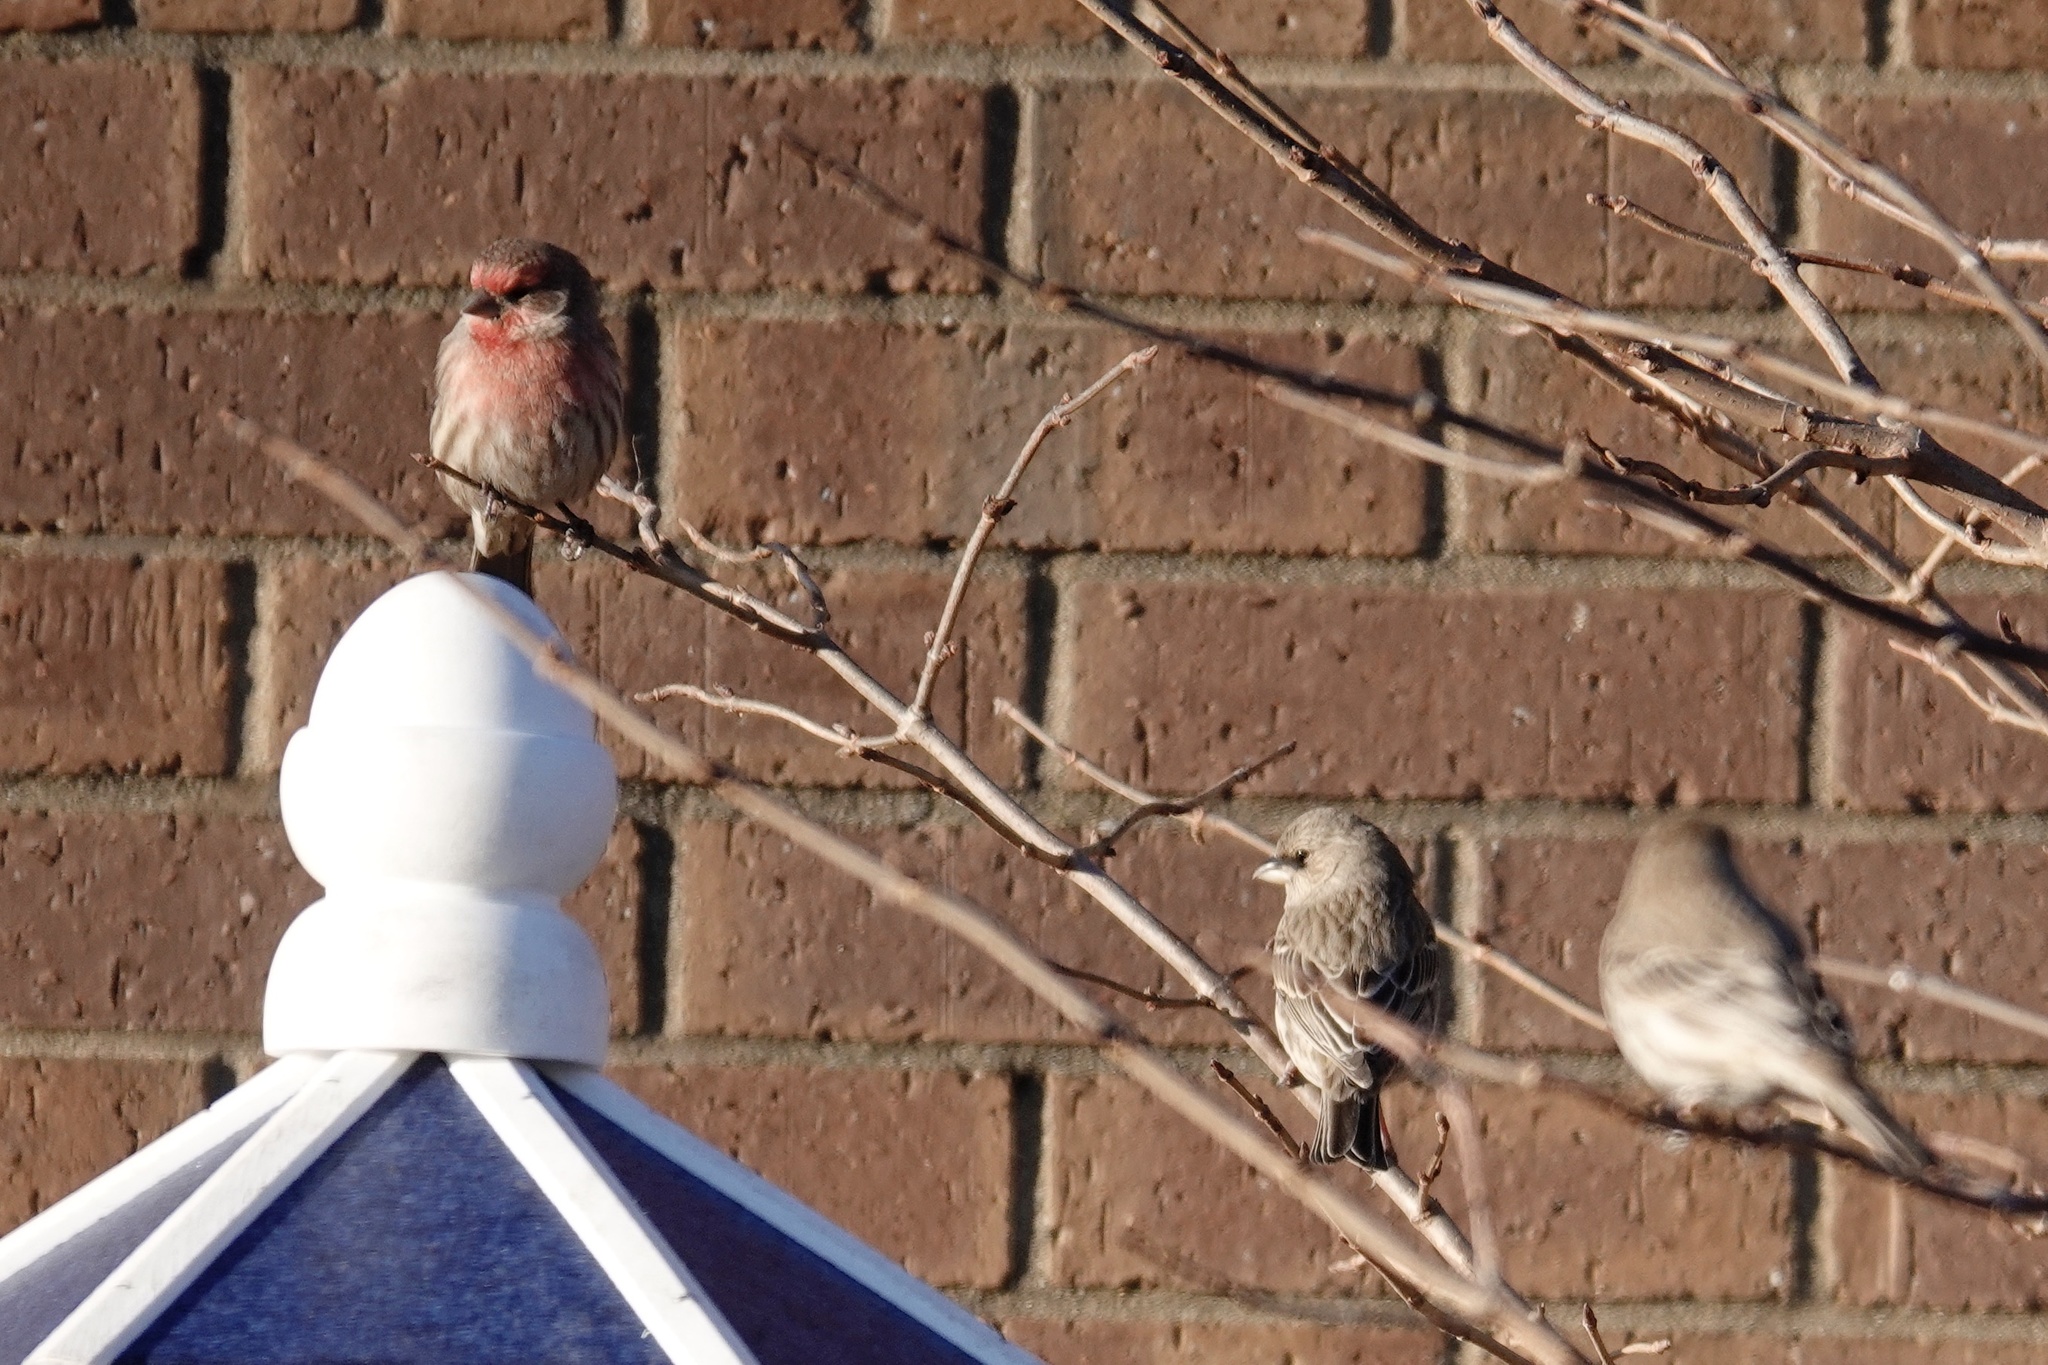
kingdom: Animalia
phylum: Chordata
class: Aves
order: Passeriformes
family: Fringillidae
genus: Haemorhous
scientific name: Haemorhous mexicanus
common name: House finch
